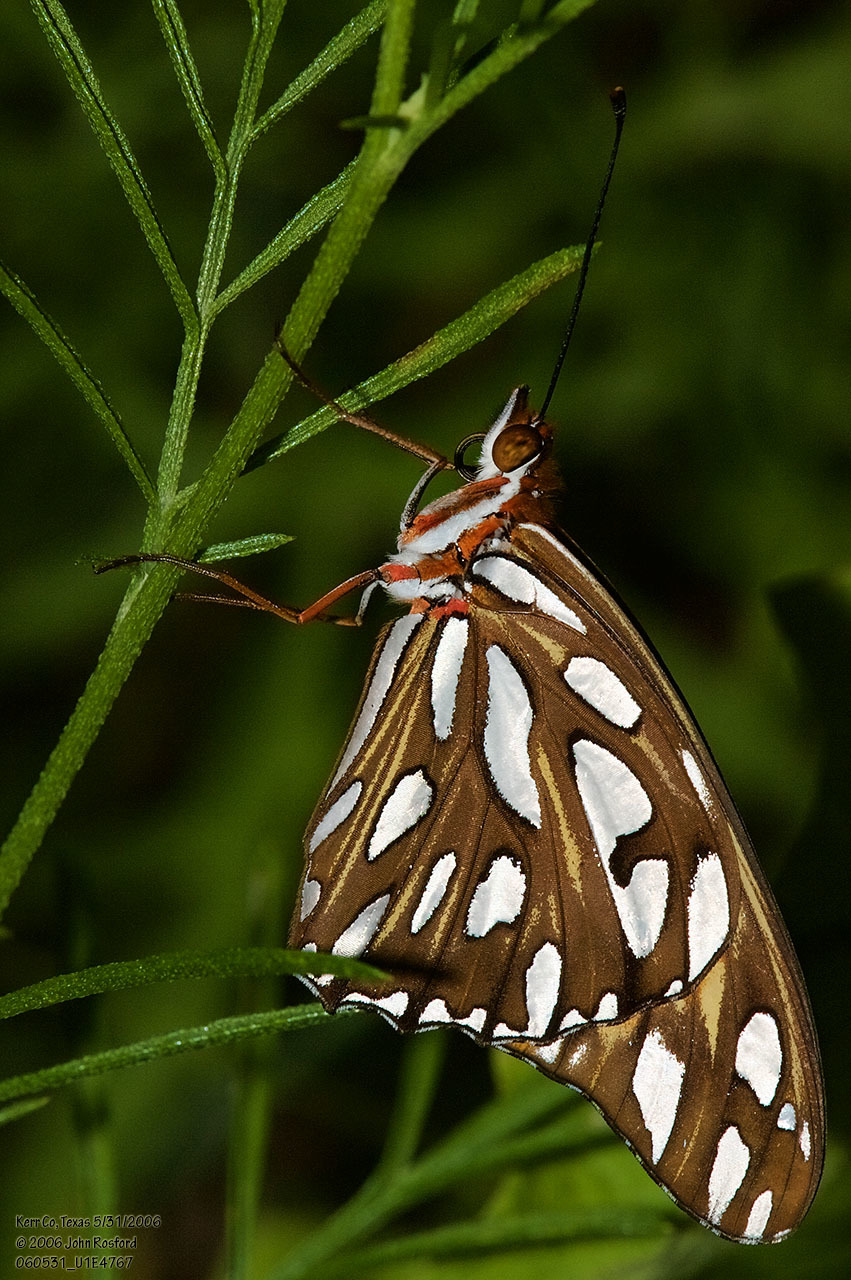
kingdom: Animalia
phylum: Arthropoda
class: Insecta
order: Lepidoptera
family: Nymphalidae
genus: Dione
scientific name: Dione vanillae
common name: Gulf fritillary
